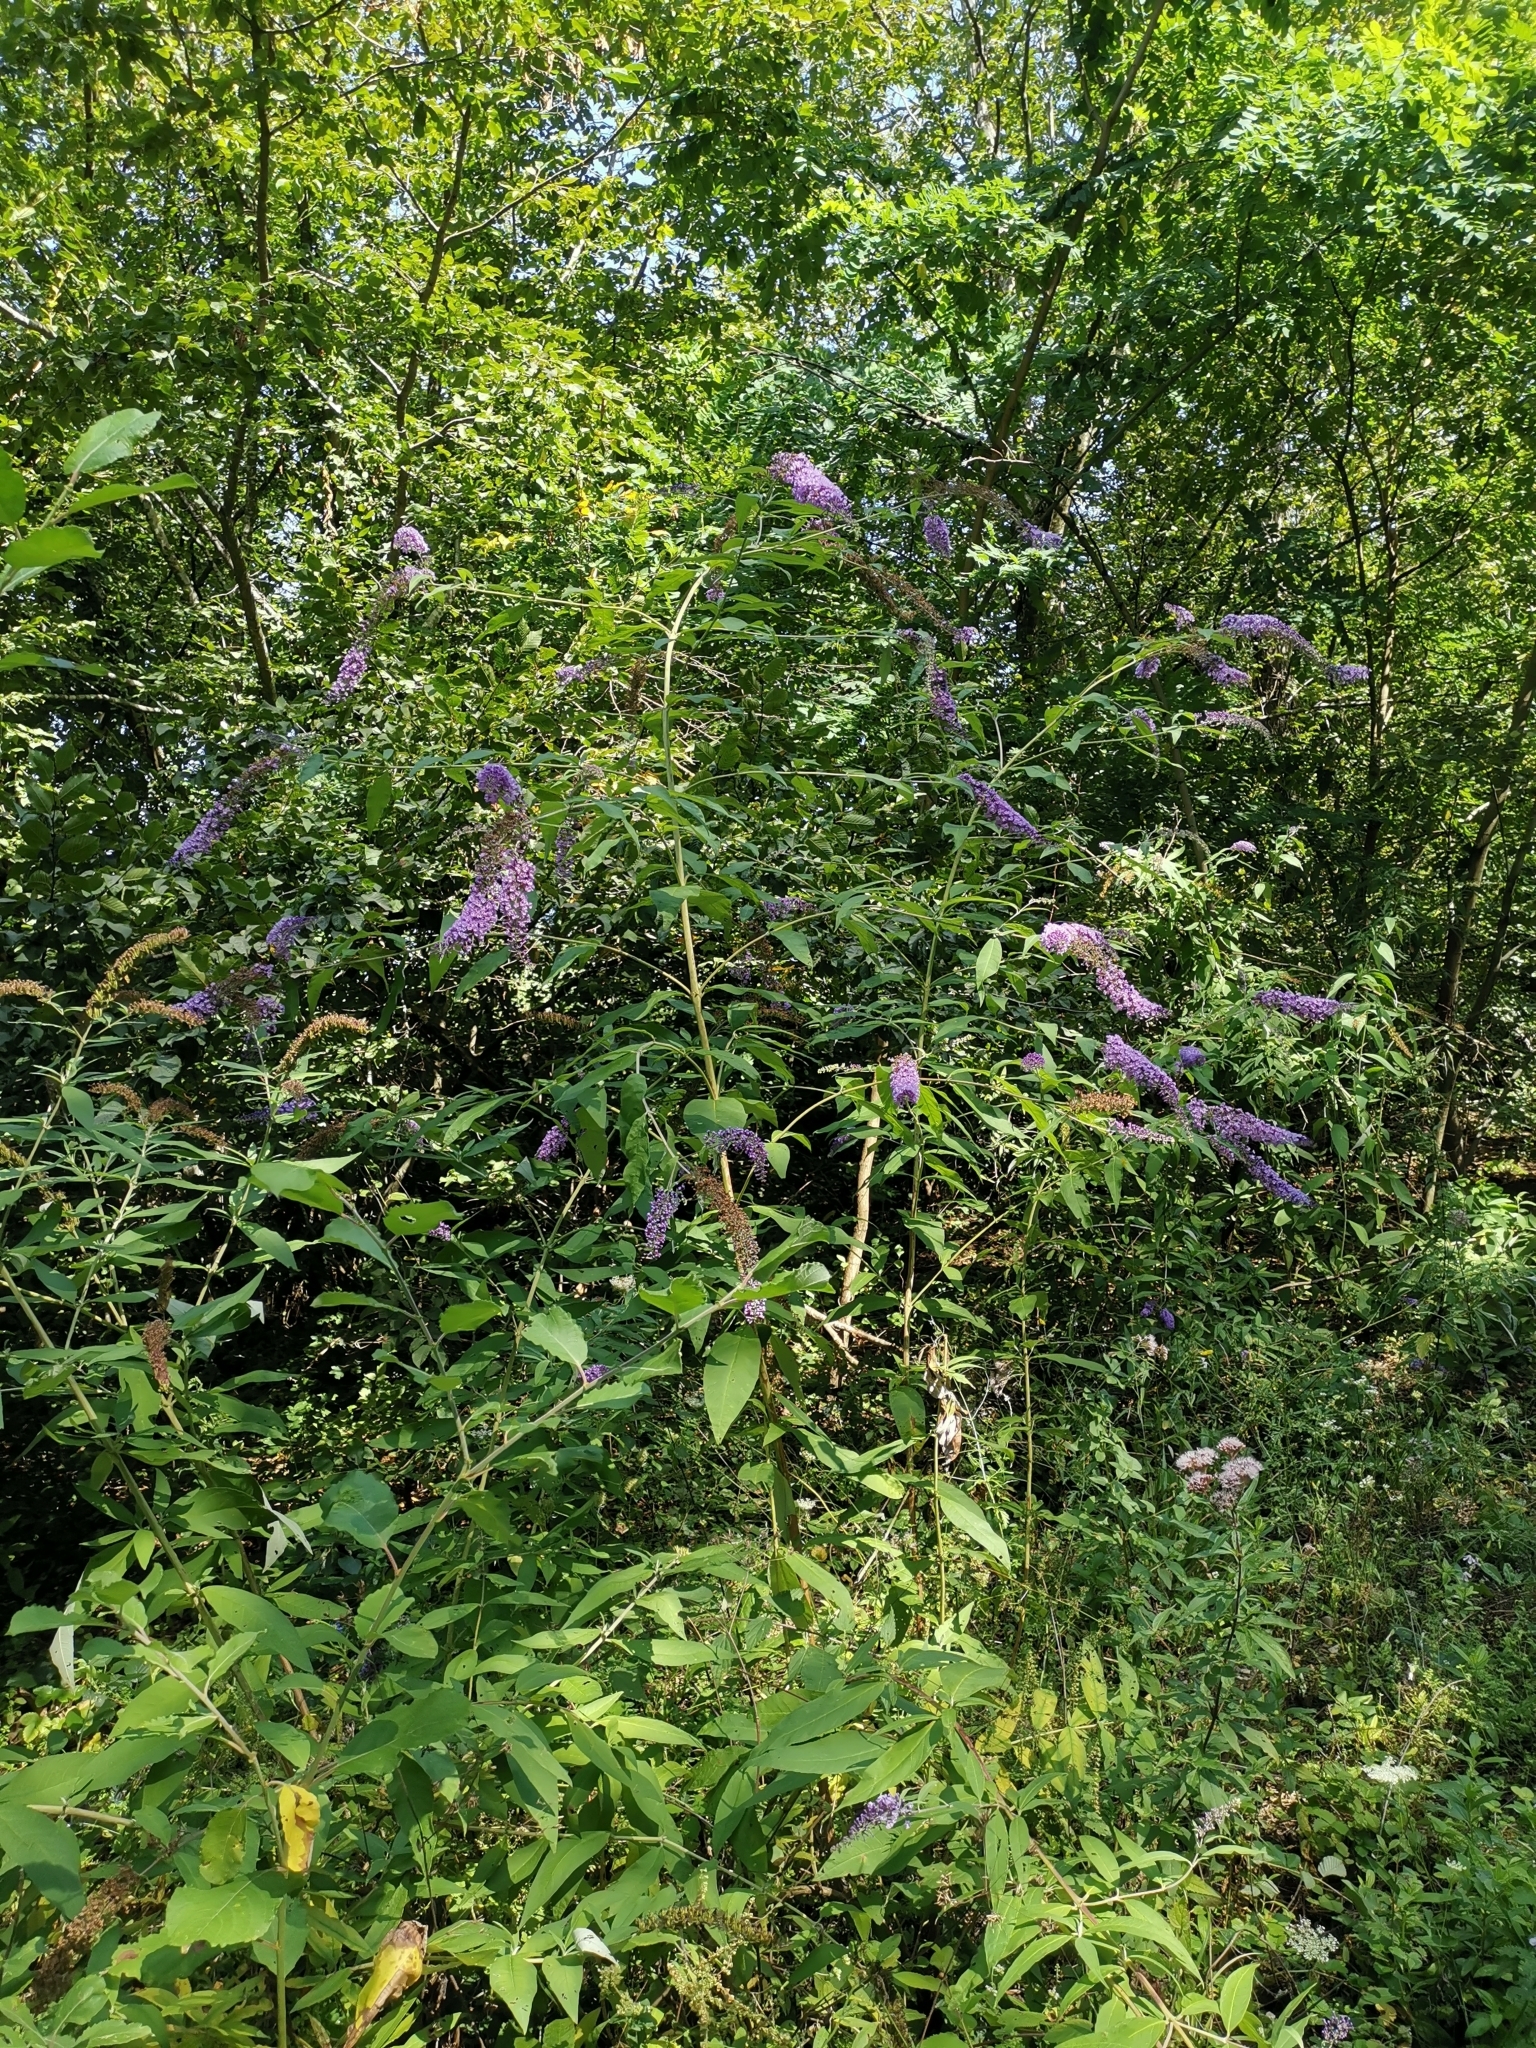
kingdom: Plantae
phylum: Tracheophyta
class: Magnoliopsida
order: Lamiales
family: Scrophulariaceae
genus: Buddleja
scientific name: Buddleja davidii
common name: Butterfly-bush
